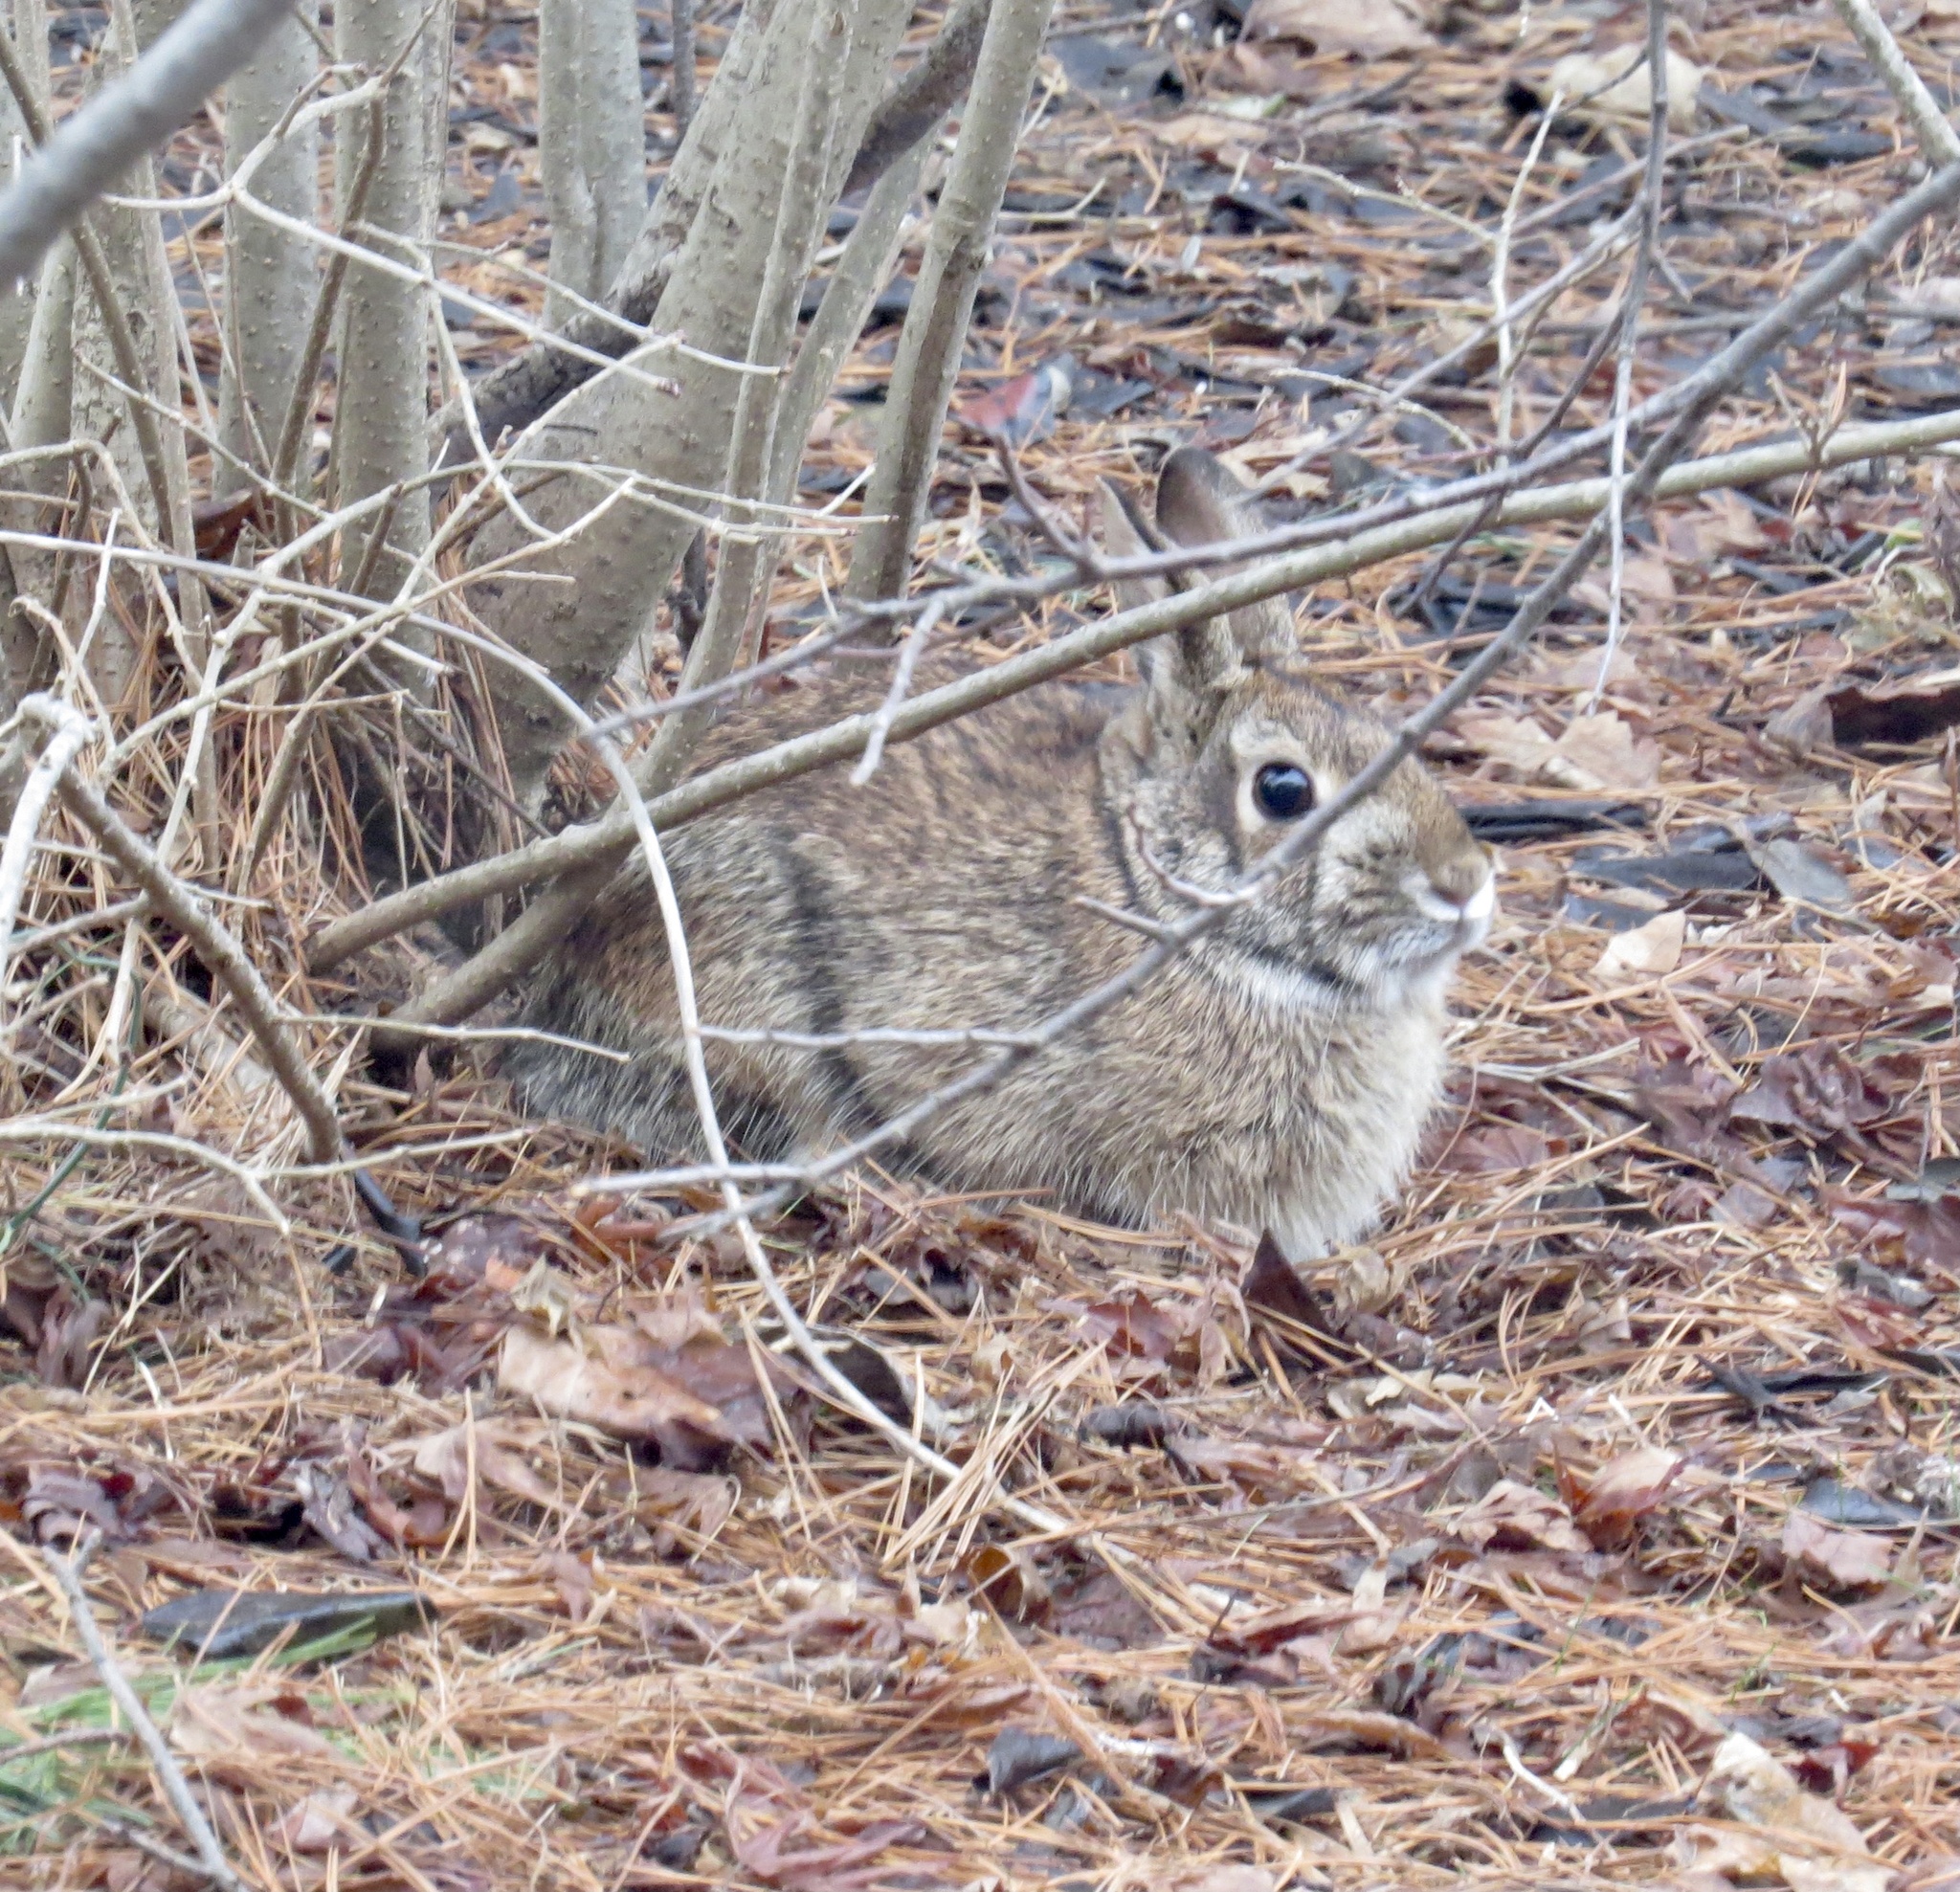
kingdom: Animalia
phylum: Chordata
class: Mammalia
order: Lagomorpha
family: Leporidae
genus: Sylvilagus
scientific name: Sylvilagus floridanus
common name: Eastern cottontail
